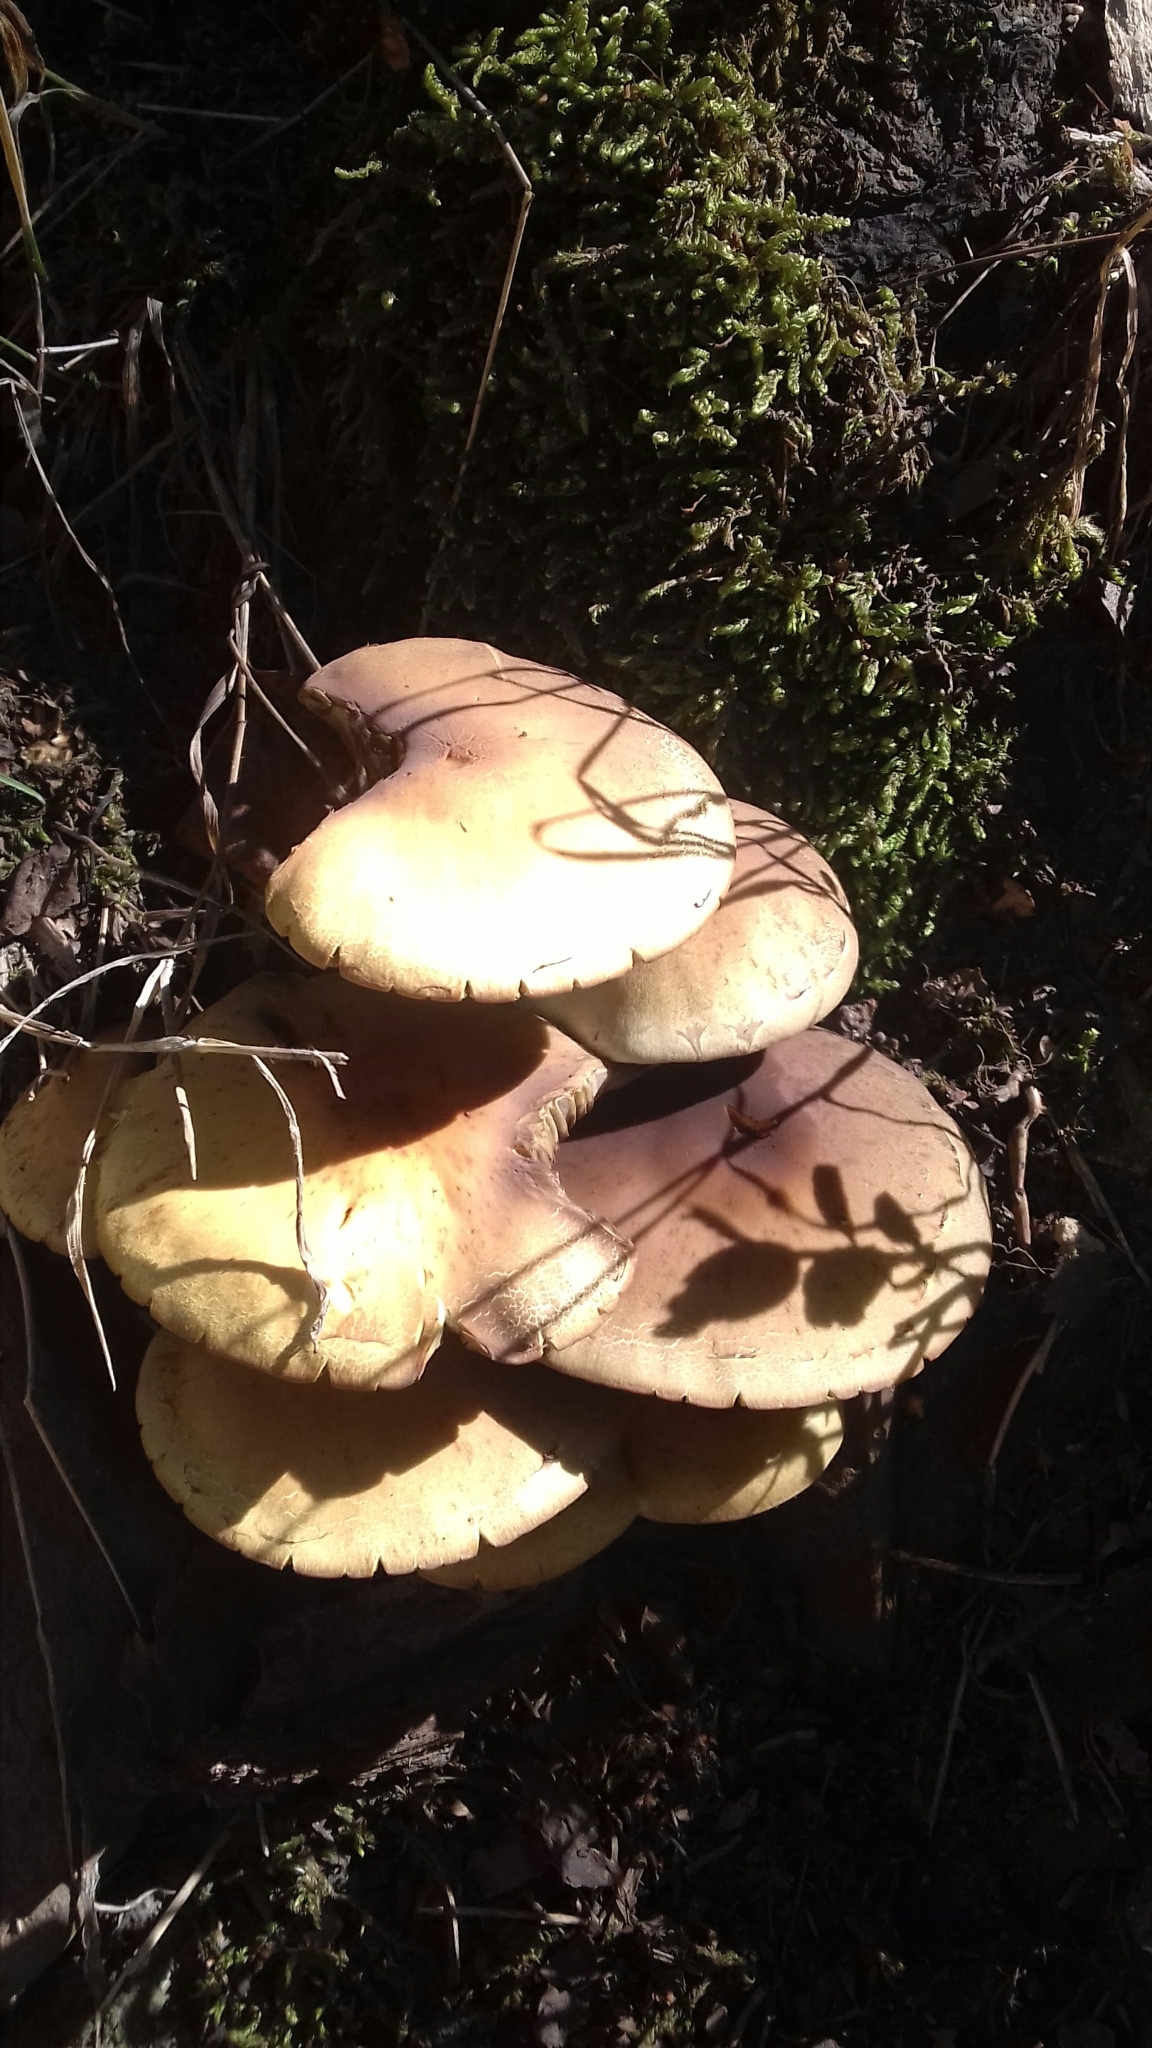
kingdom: Fungi
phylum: Basidiomycota
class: Agaricomycetes
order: Agaricales
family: Strophariaceae
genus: Hypholoma
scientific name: Hypholoma fasciculare
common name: Sulphur tuft
